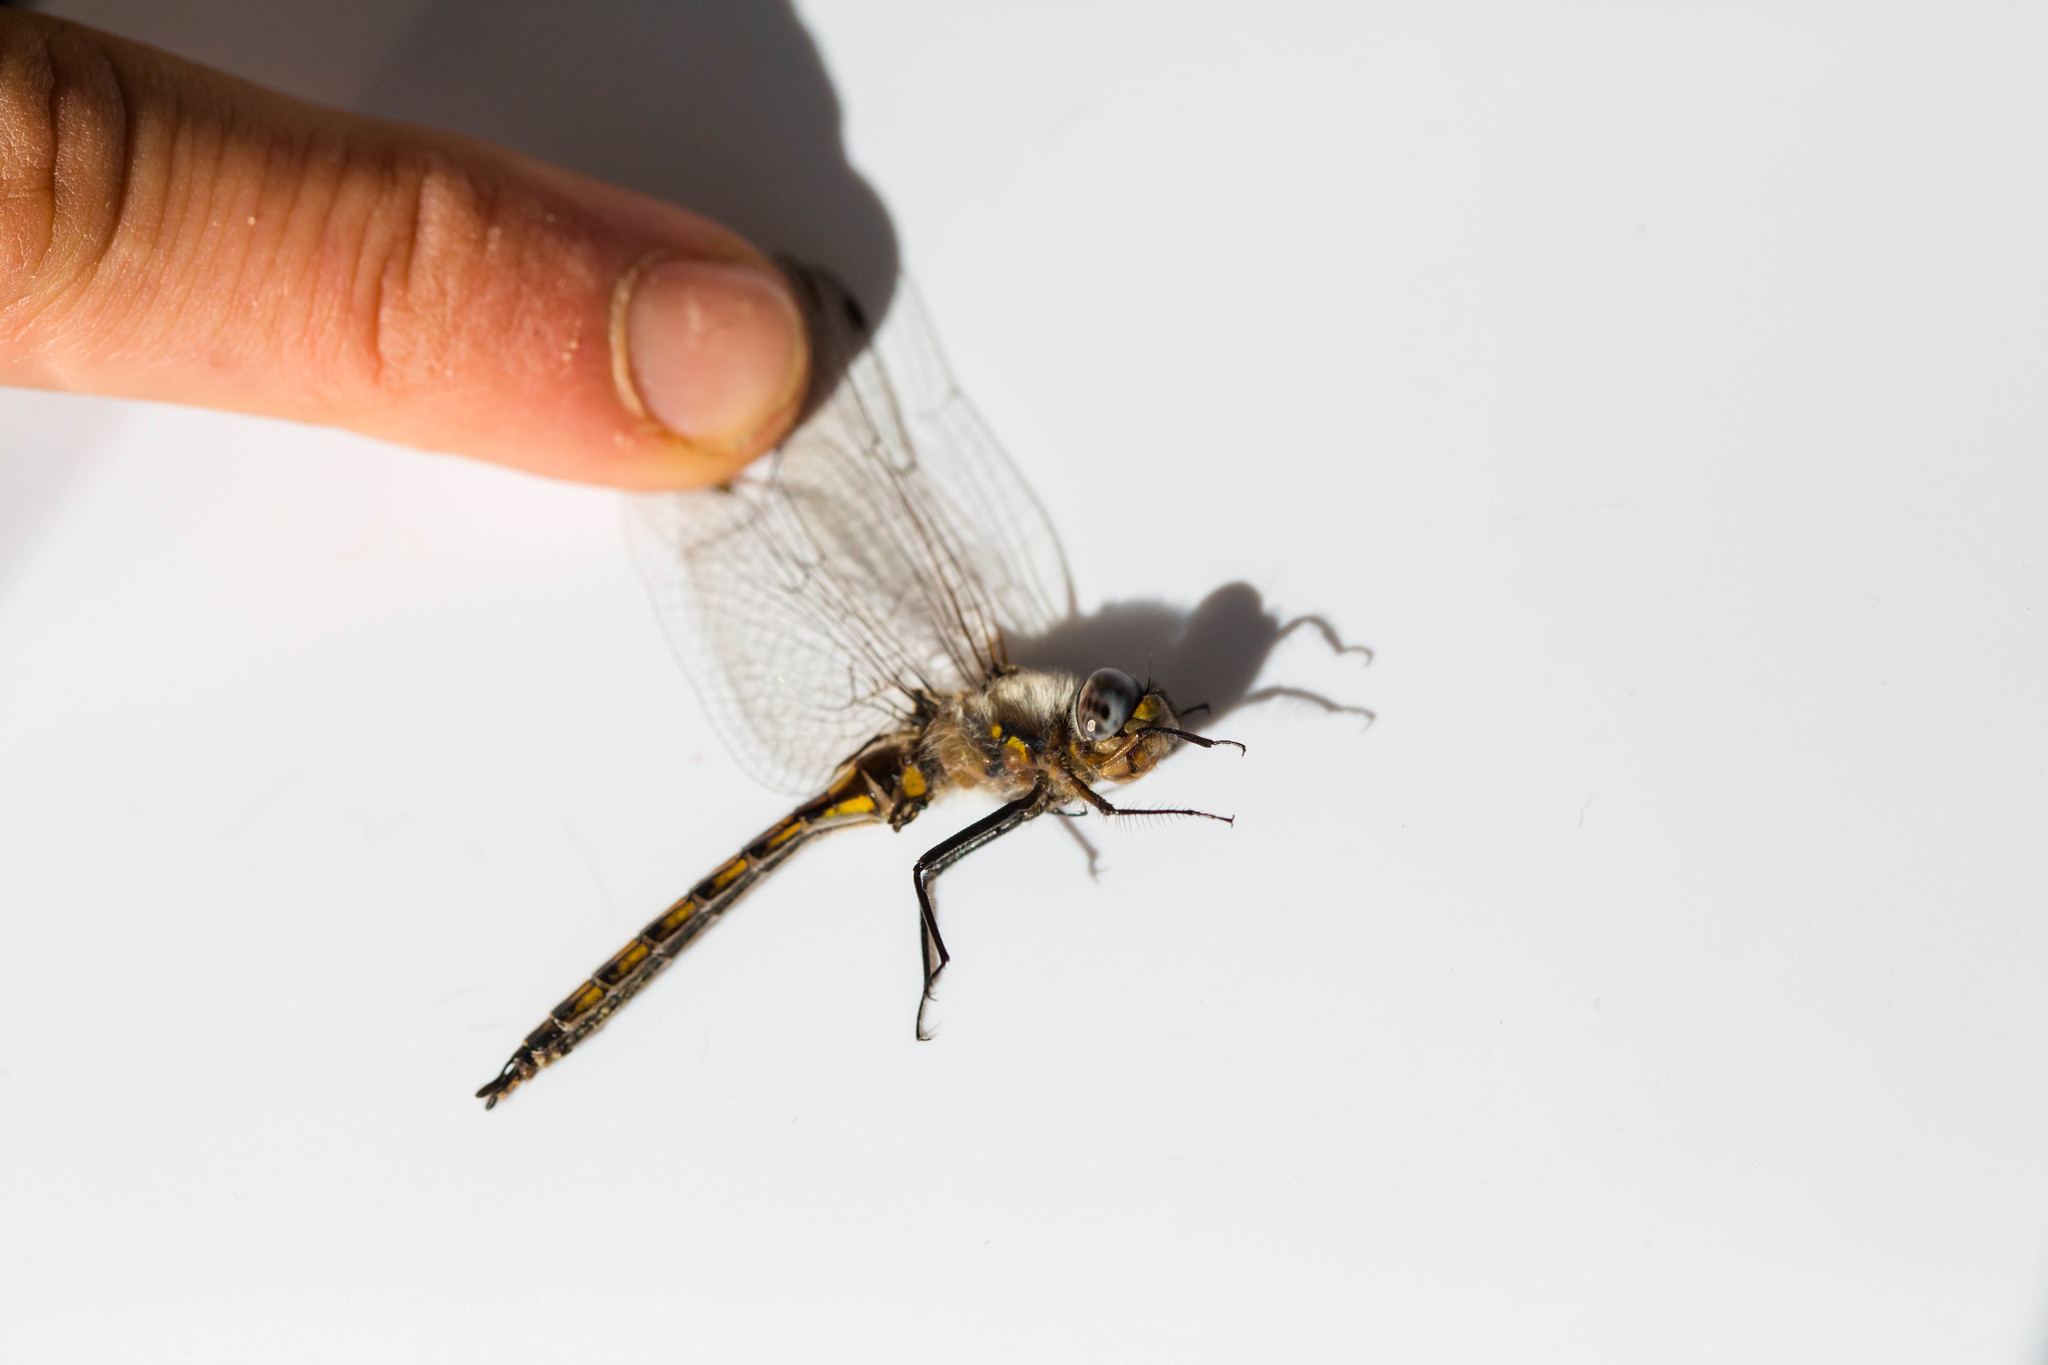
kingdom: Animalia
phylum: Arthropoda
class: Insecta
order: Odonata
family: Corduliidae
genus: Epitheca
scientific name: Epitheca cynosura
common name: Common baskettail
